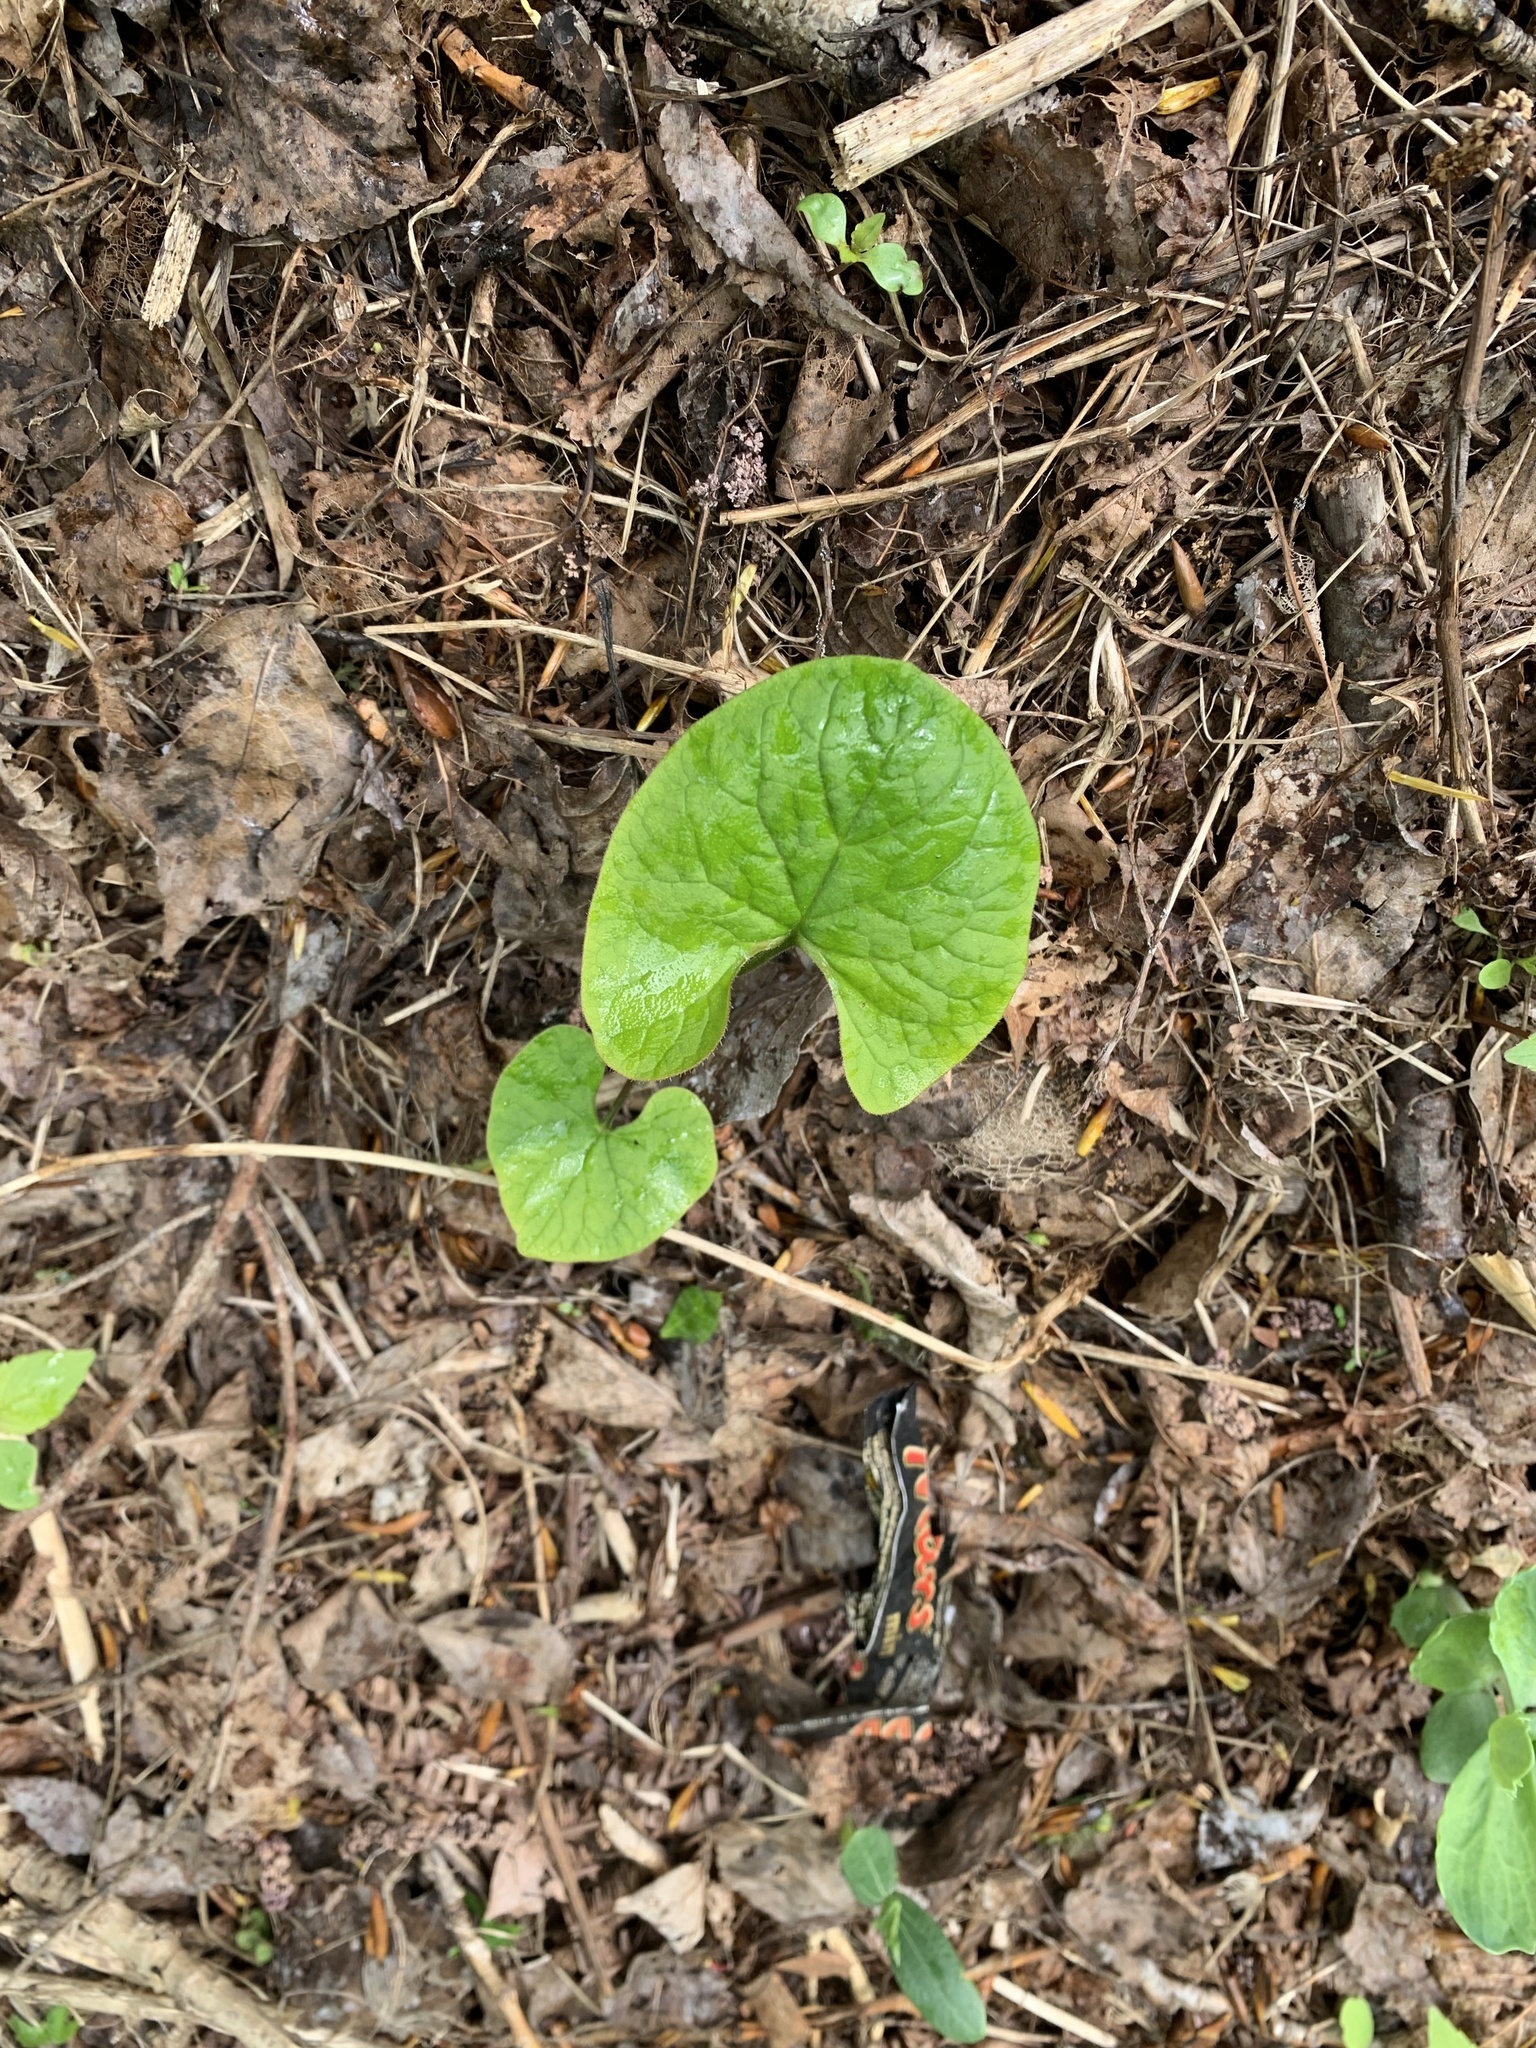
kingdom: Plantae
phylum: Tracheophyta
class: Magnoliopsida
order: Boraginales
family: Boraginaceae
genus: Brunnera
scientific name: Brunnera sibirica
